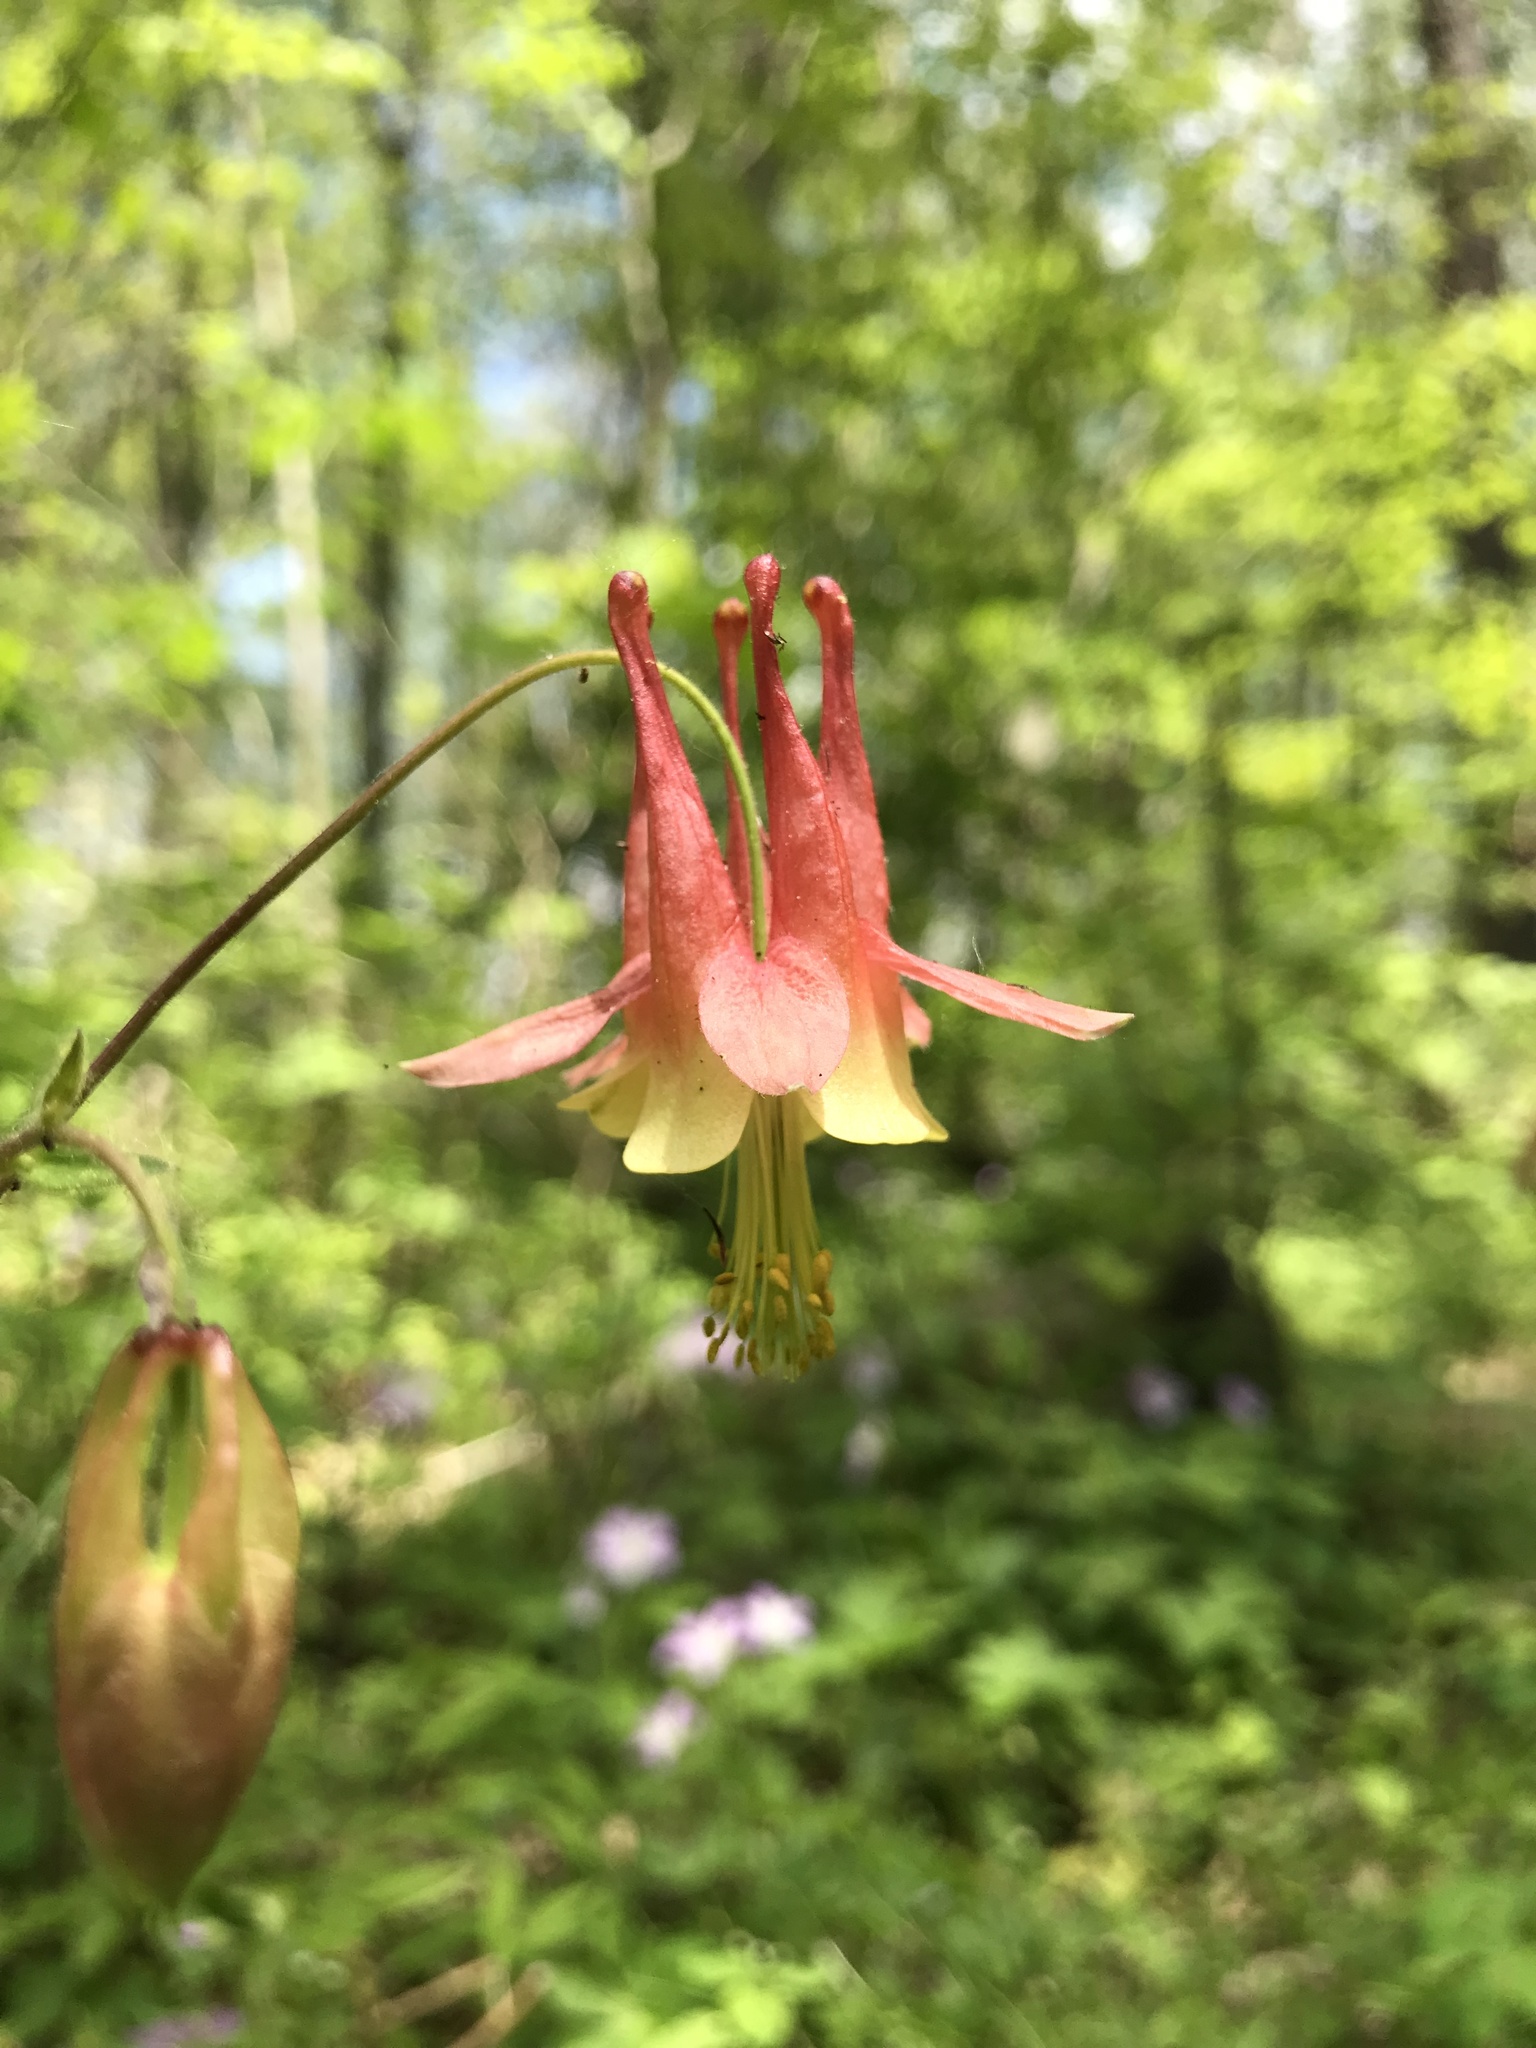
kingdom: Plantae
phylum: Tracheophyta
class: Magnoliopsida
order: Ranunculales
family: Ranunculaceae
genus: Aquilegia
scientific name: Aquilegia canadensis
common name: American columbine
